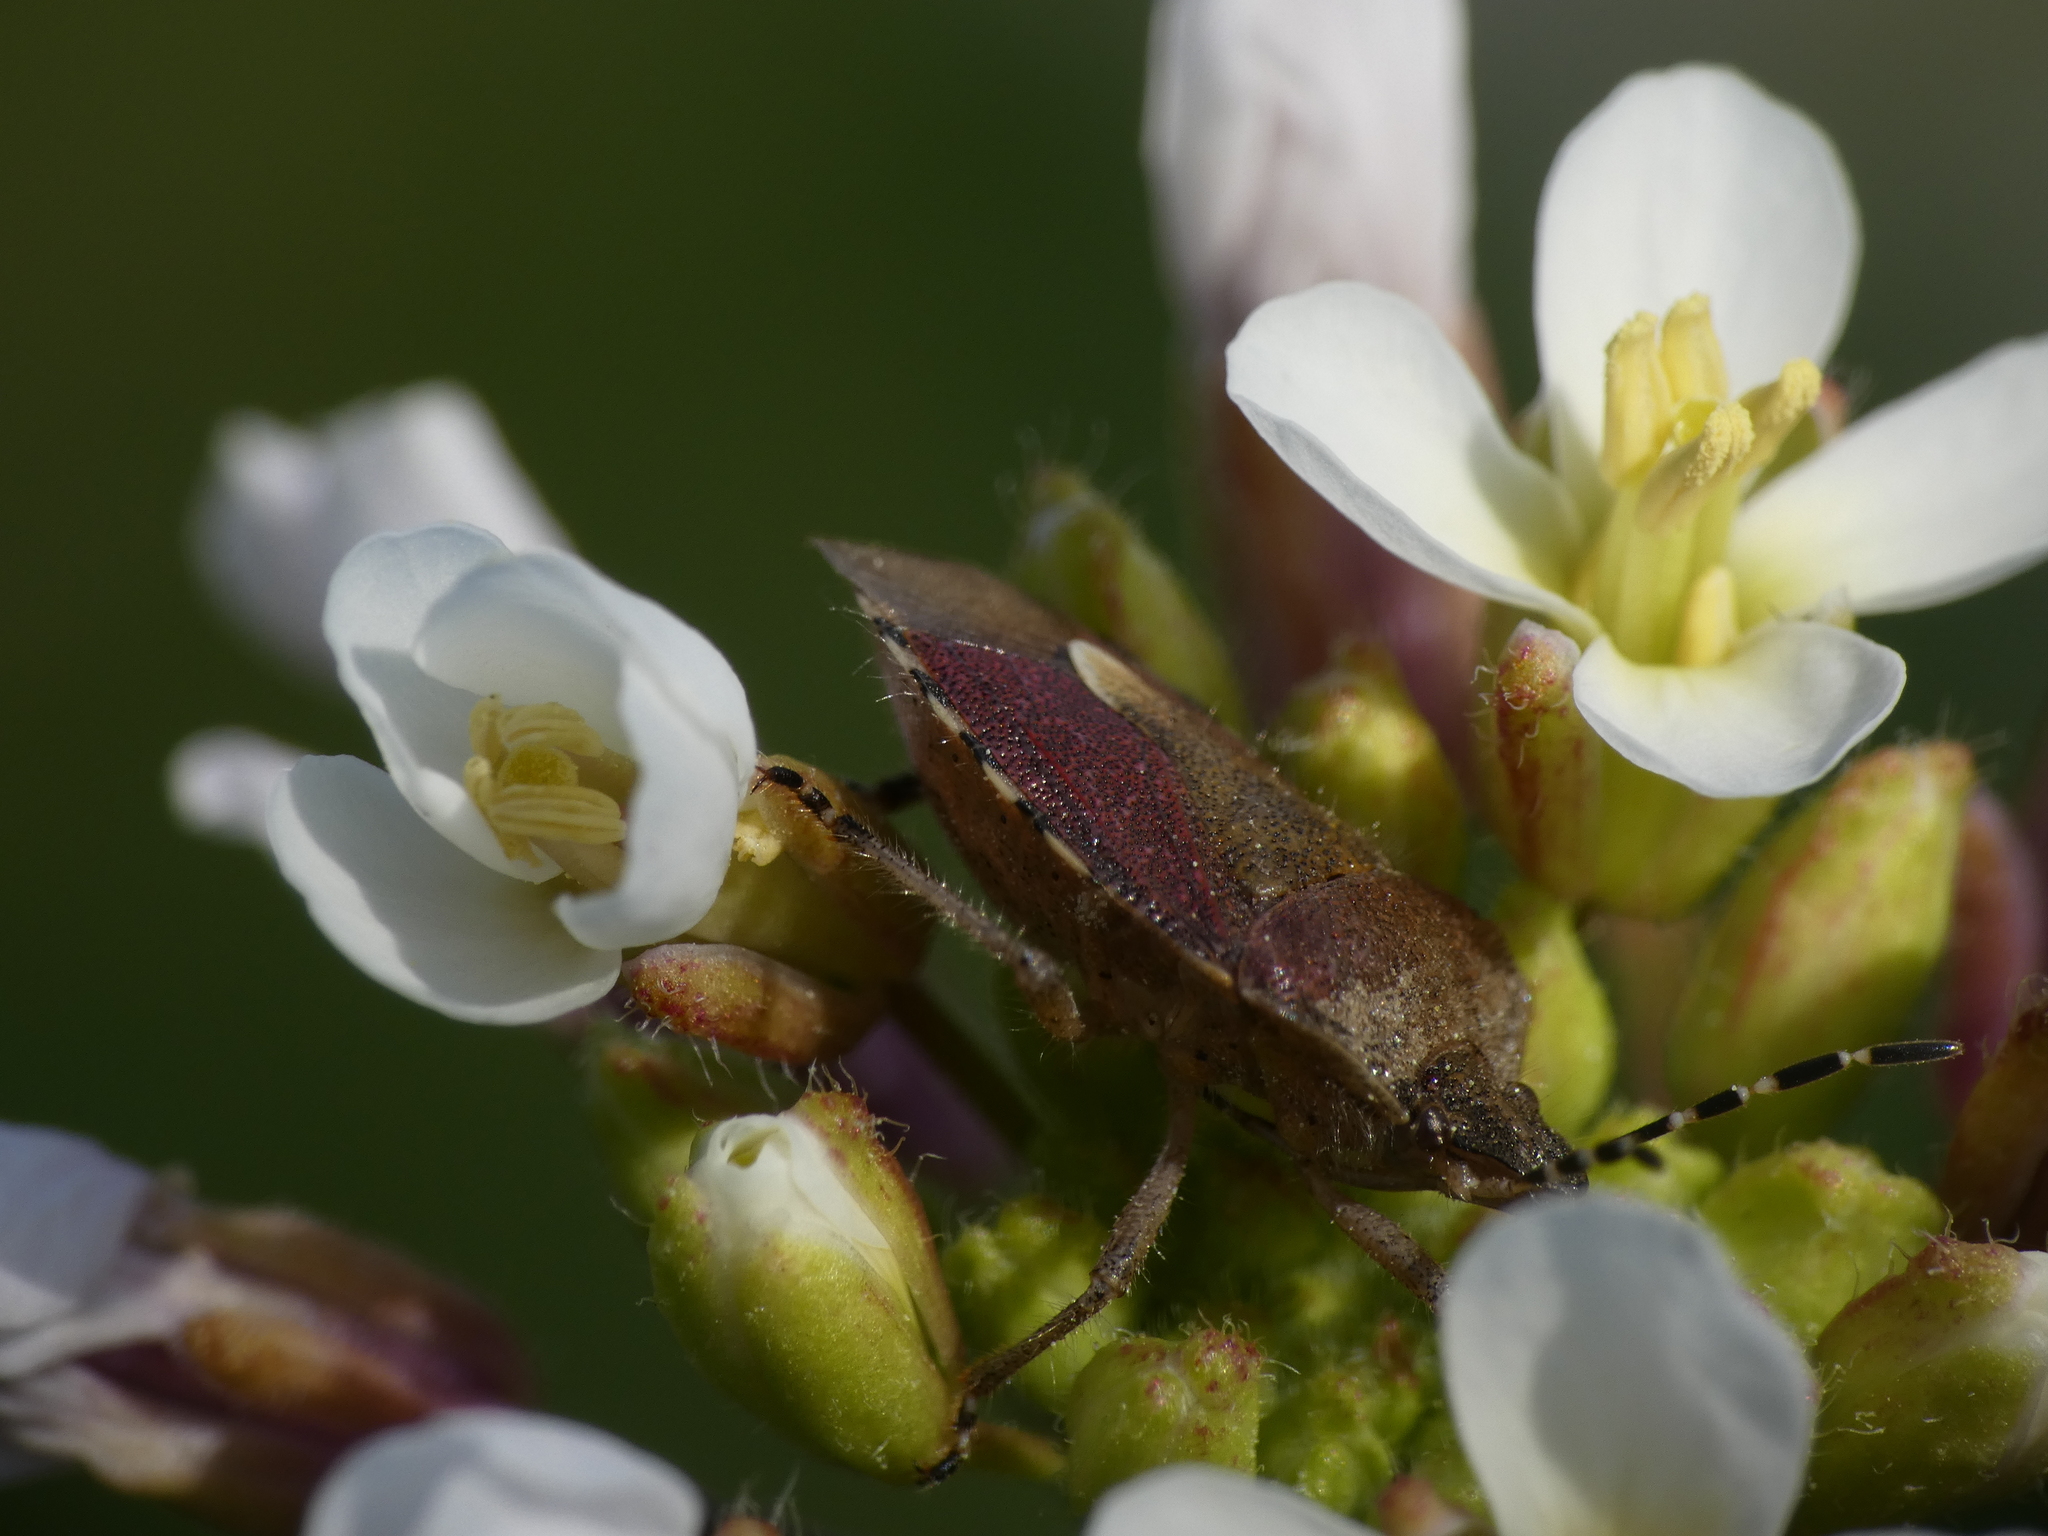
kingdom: Animalia
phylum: Arthropoda
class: Insecta
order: Hemiptera
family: Pentatomidae
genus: Dolycoris
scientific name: Dolycoris baccarum
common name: Sloe bug
